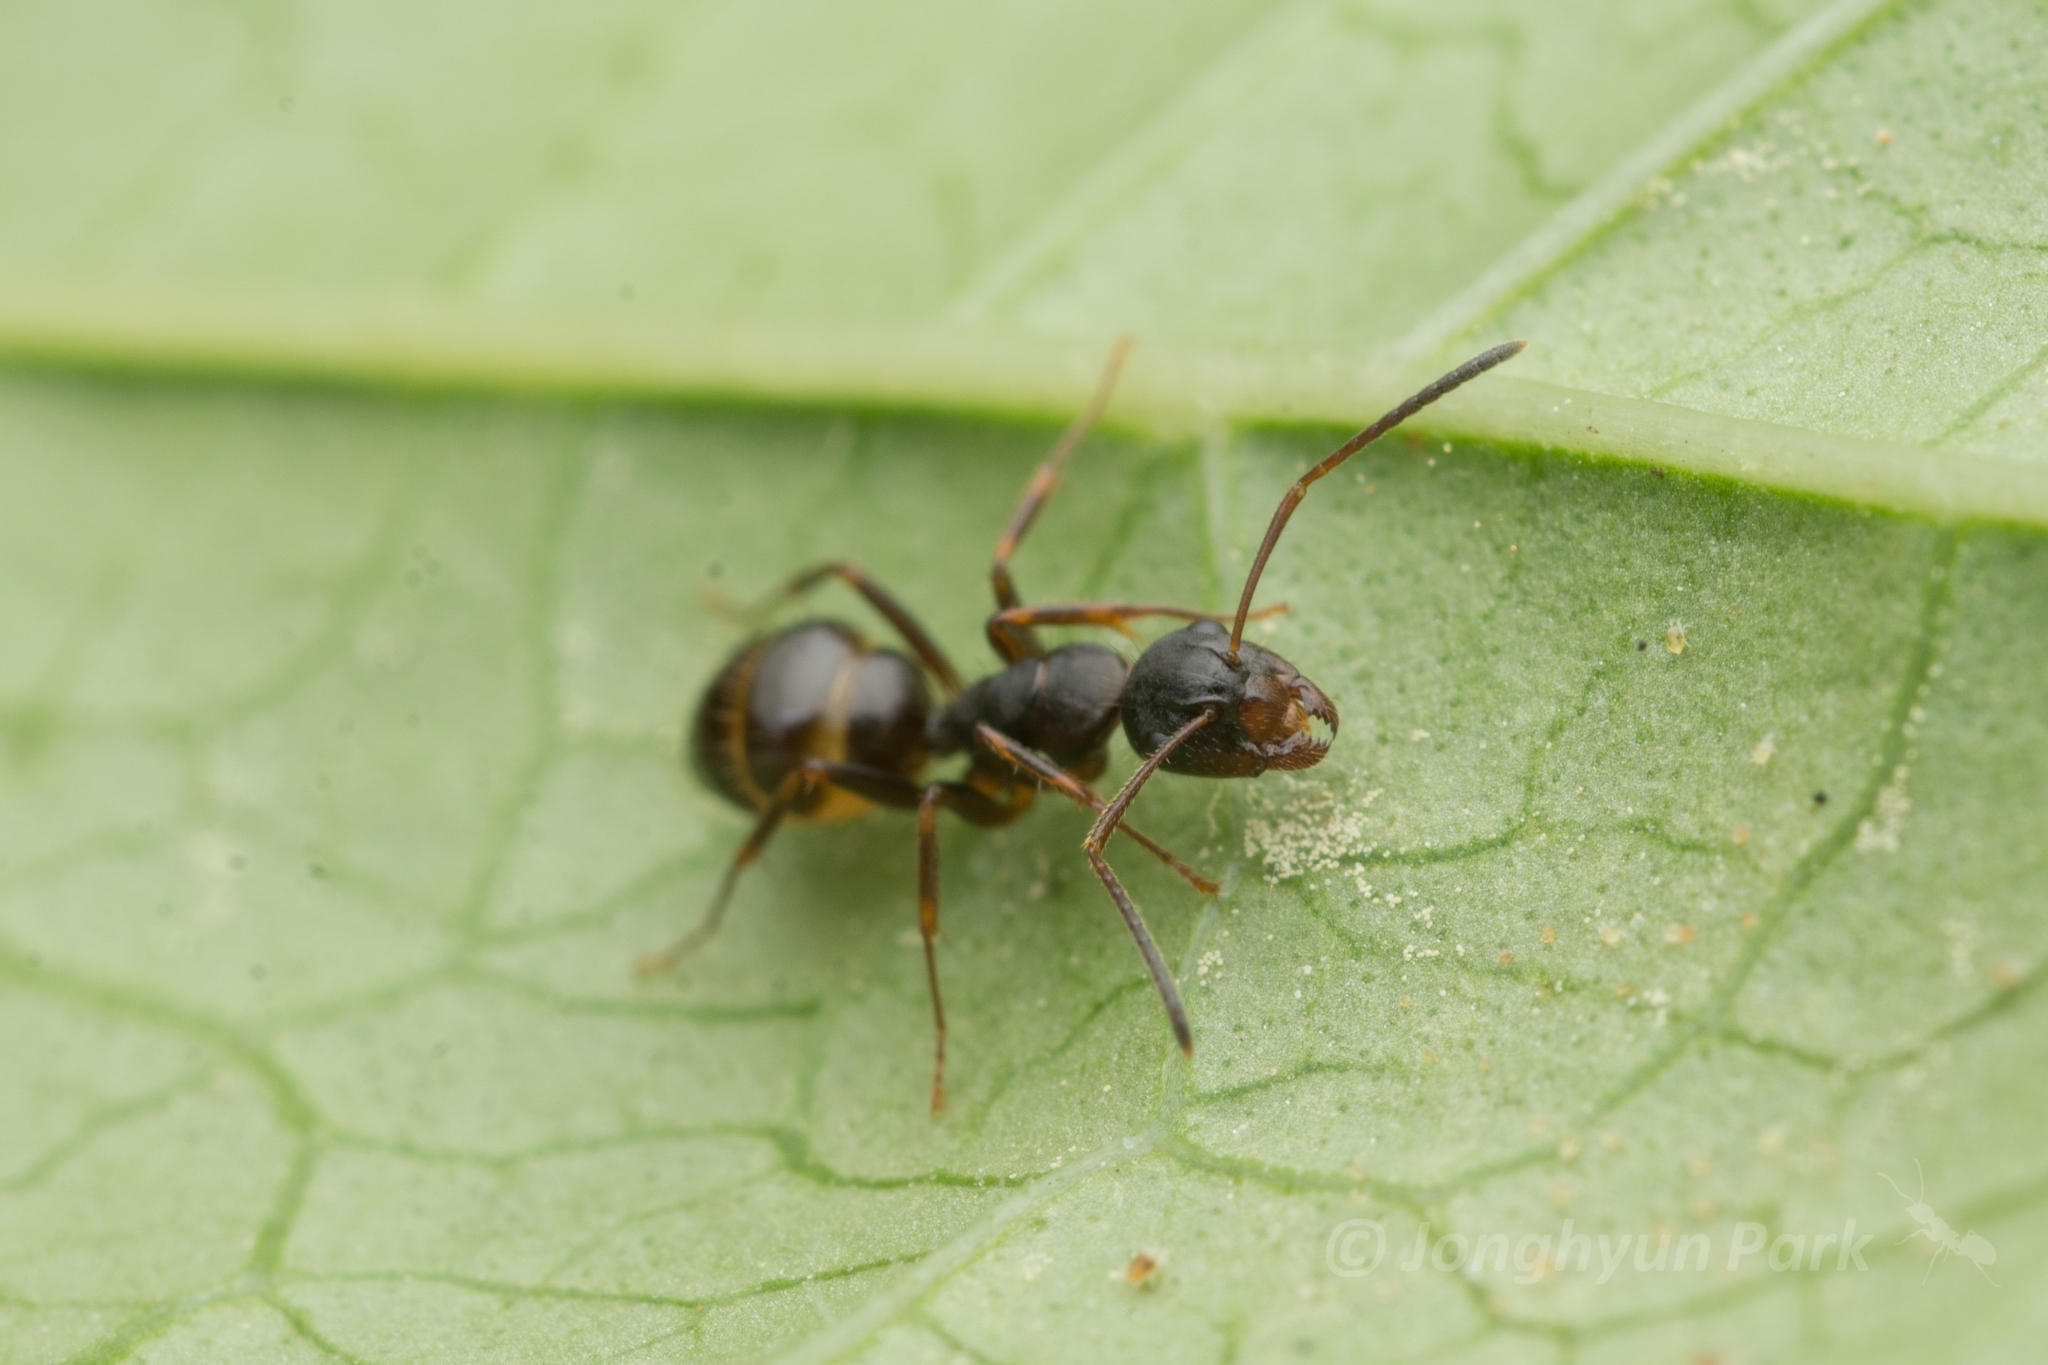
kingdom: Animalia
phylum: Arthropoda
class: Insecta
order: Hymenoptera
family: Formicidae
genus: Camponotus
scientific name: Camponotus nipponensis
